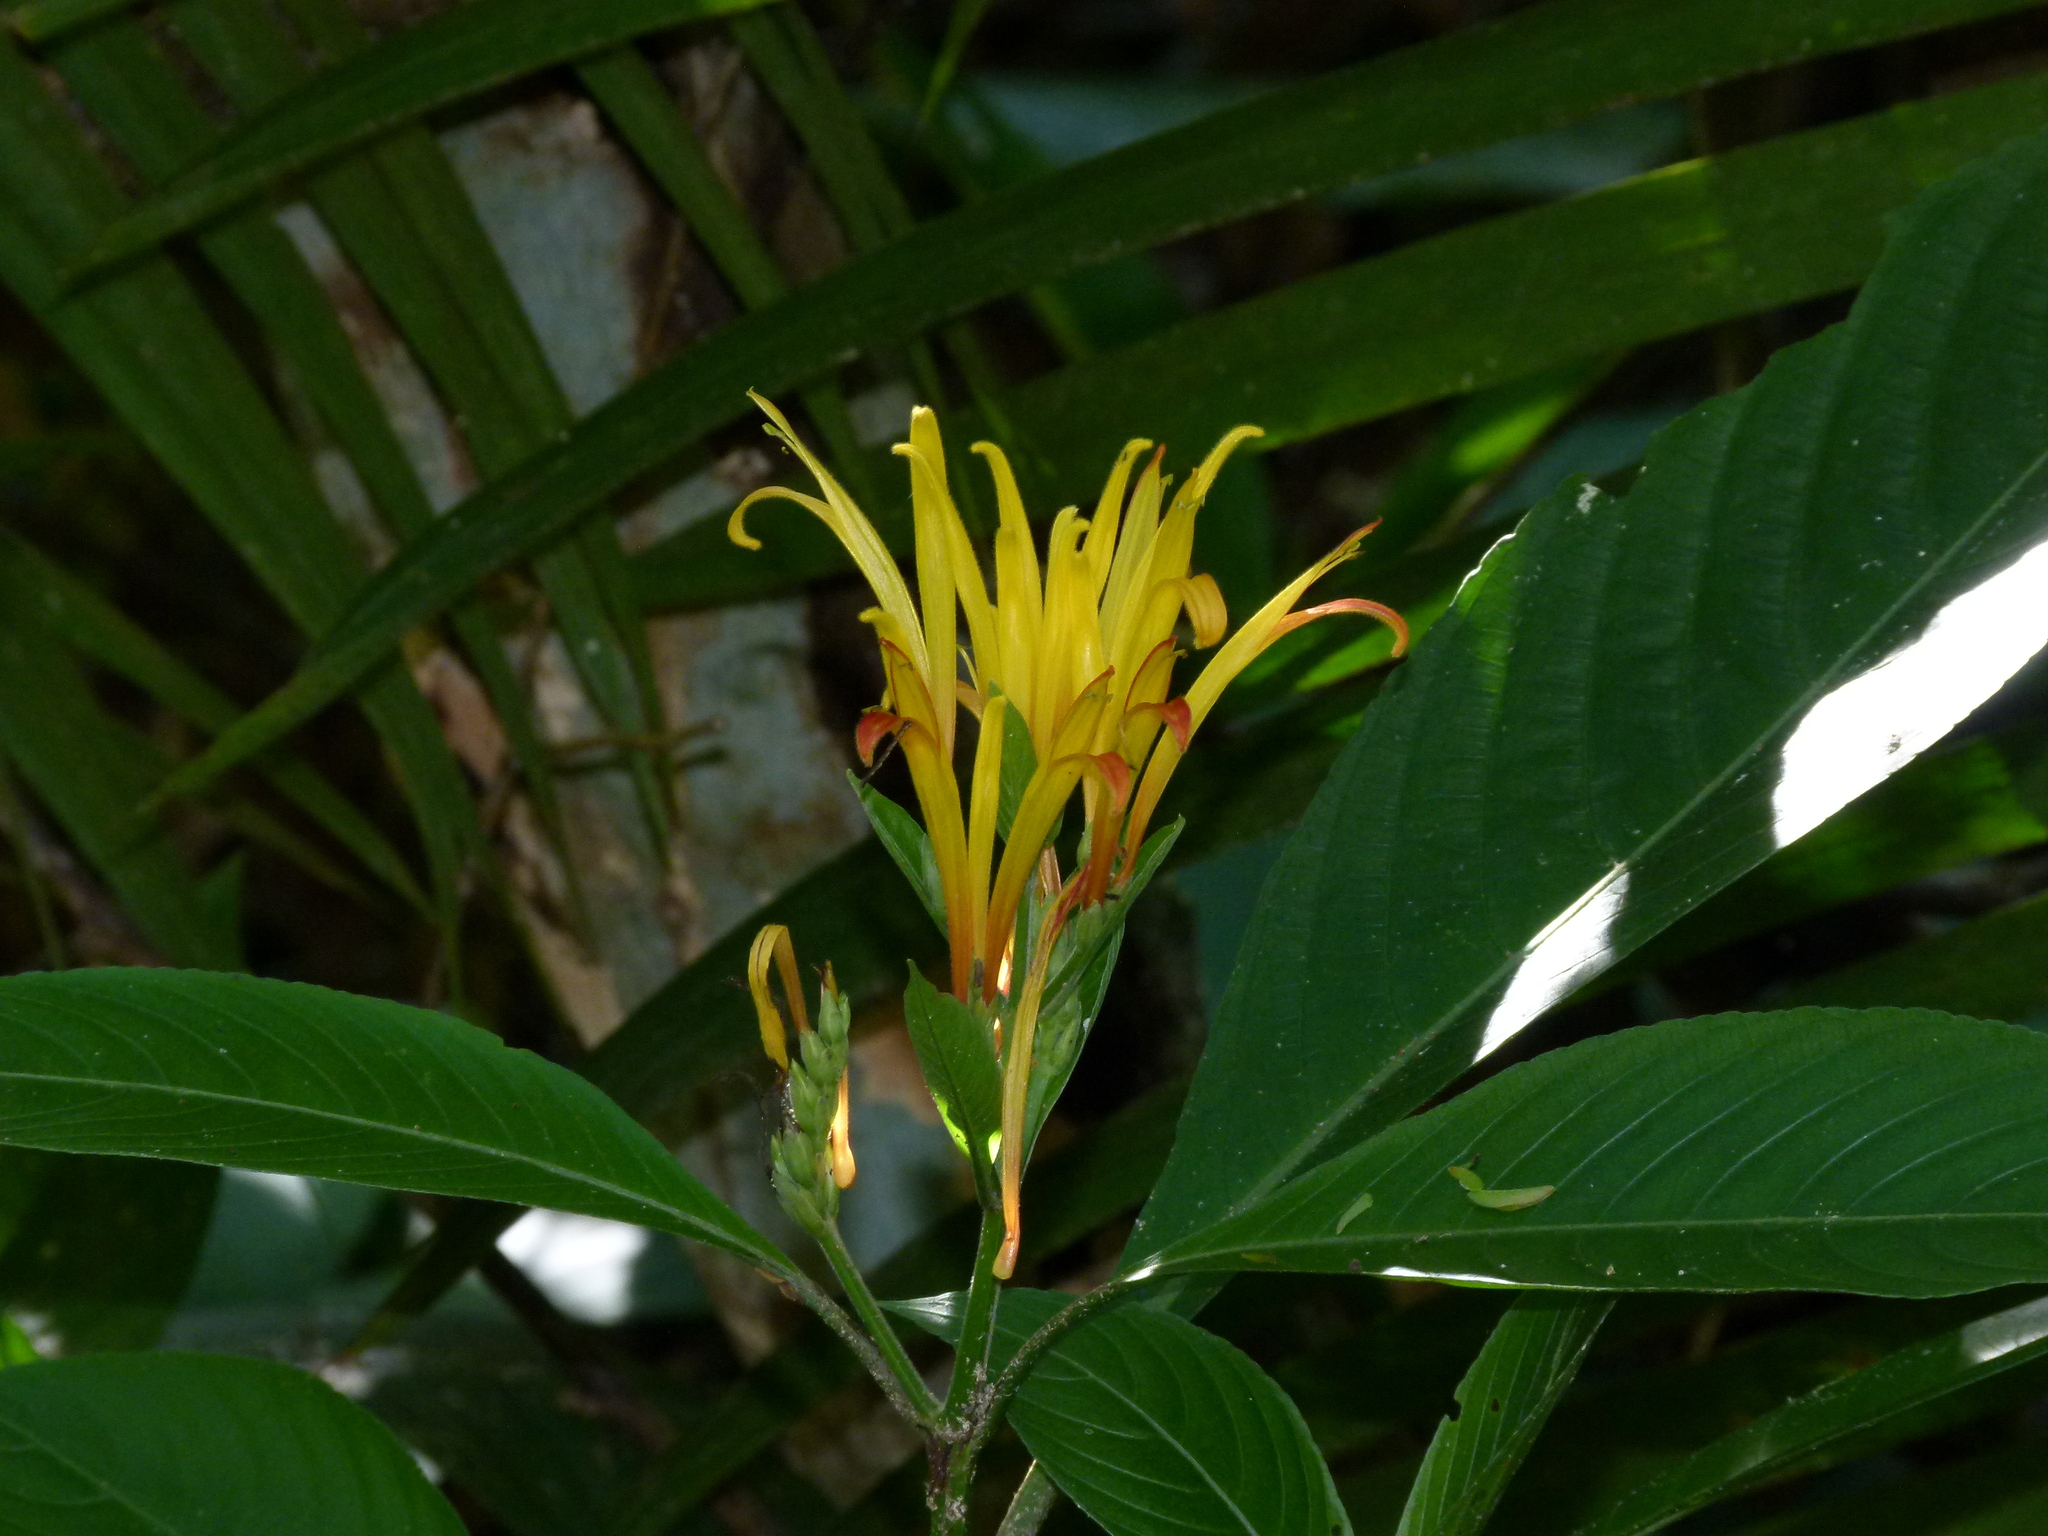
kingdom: Plantae
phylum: Tracheophyta
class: Magnoliopsida
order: Lamiales
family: Acanthaceae
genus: Justicia
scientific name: Justicia aurea
